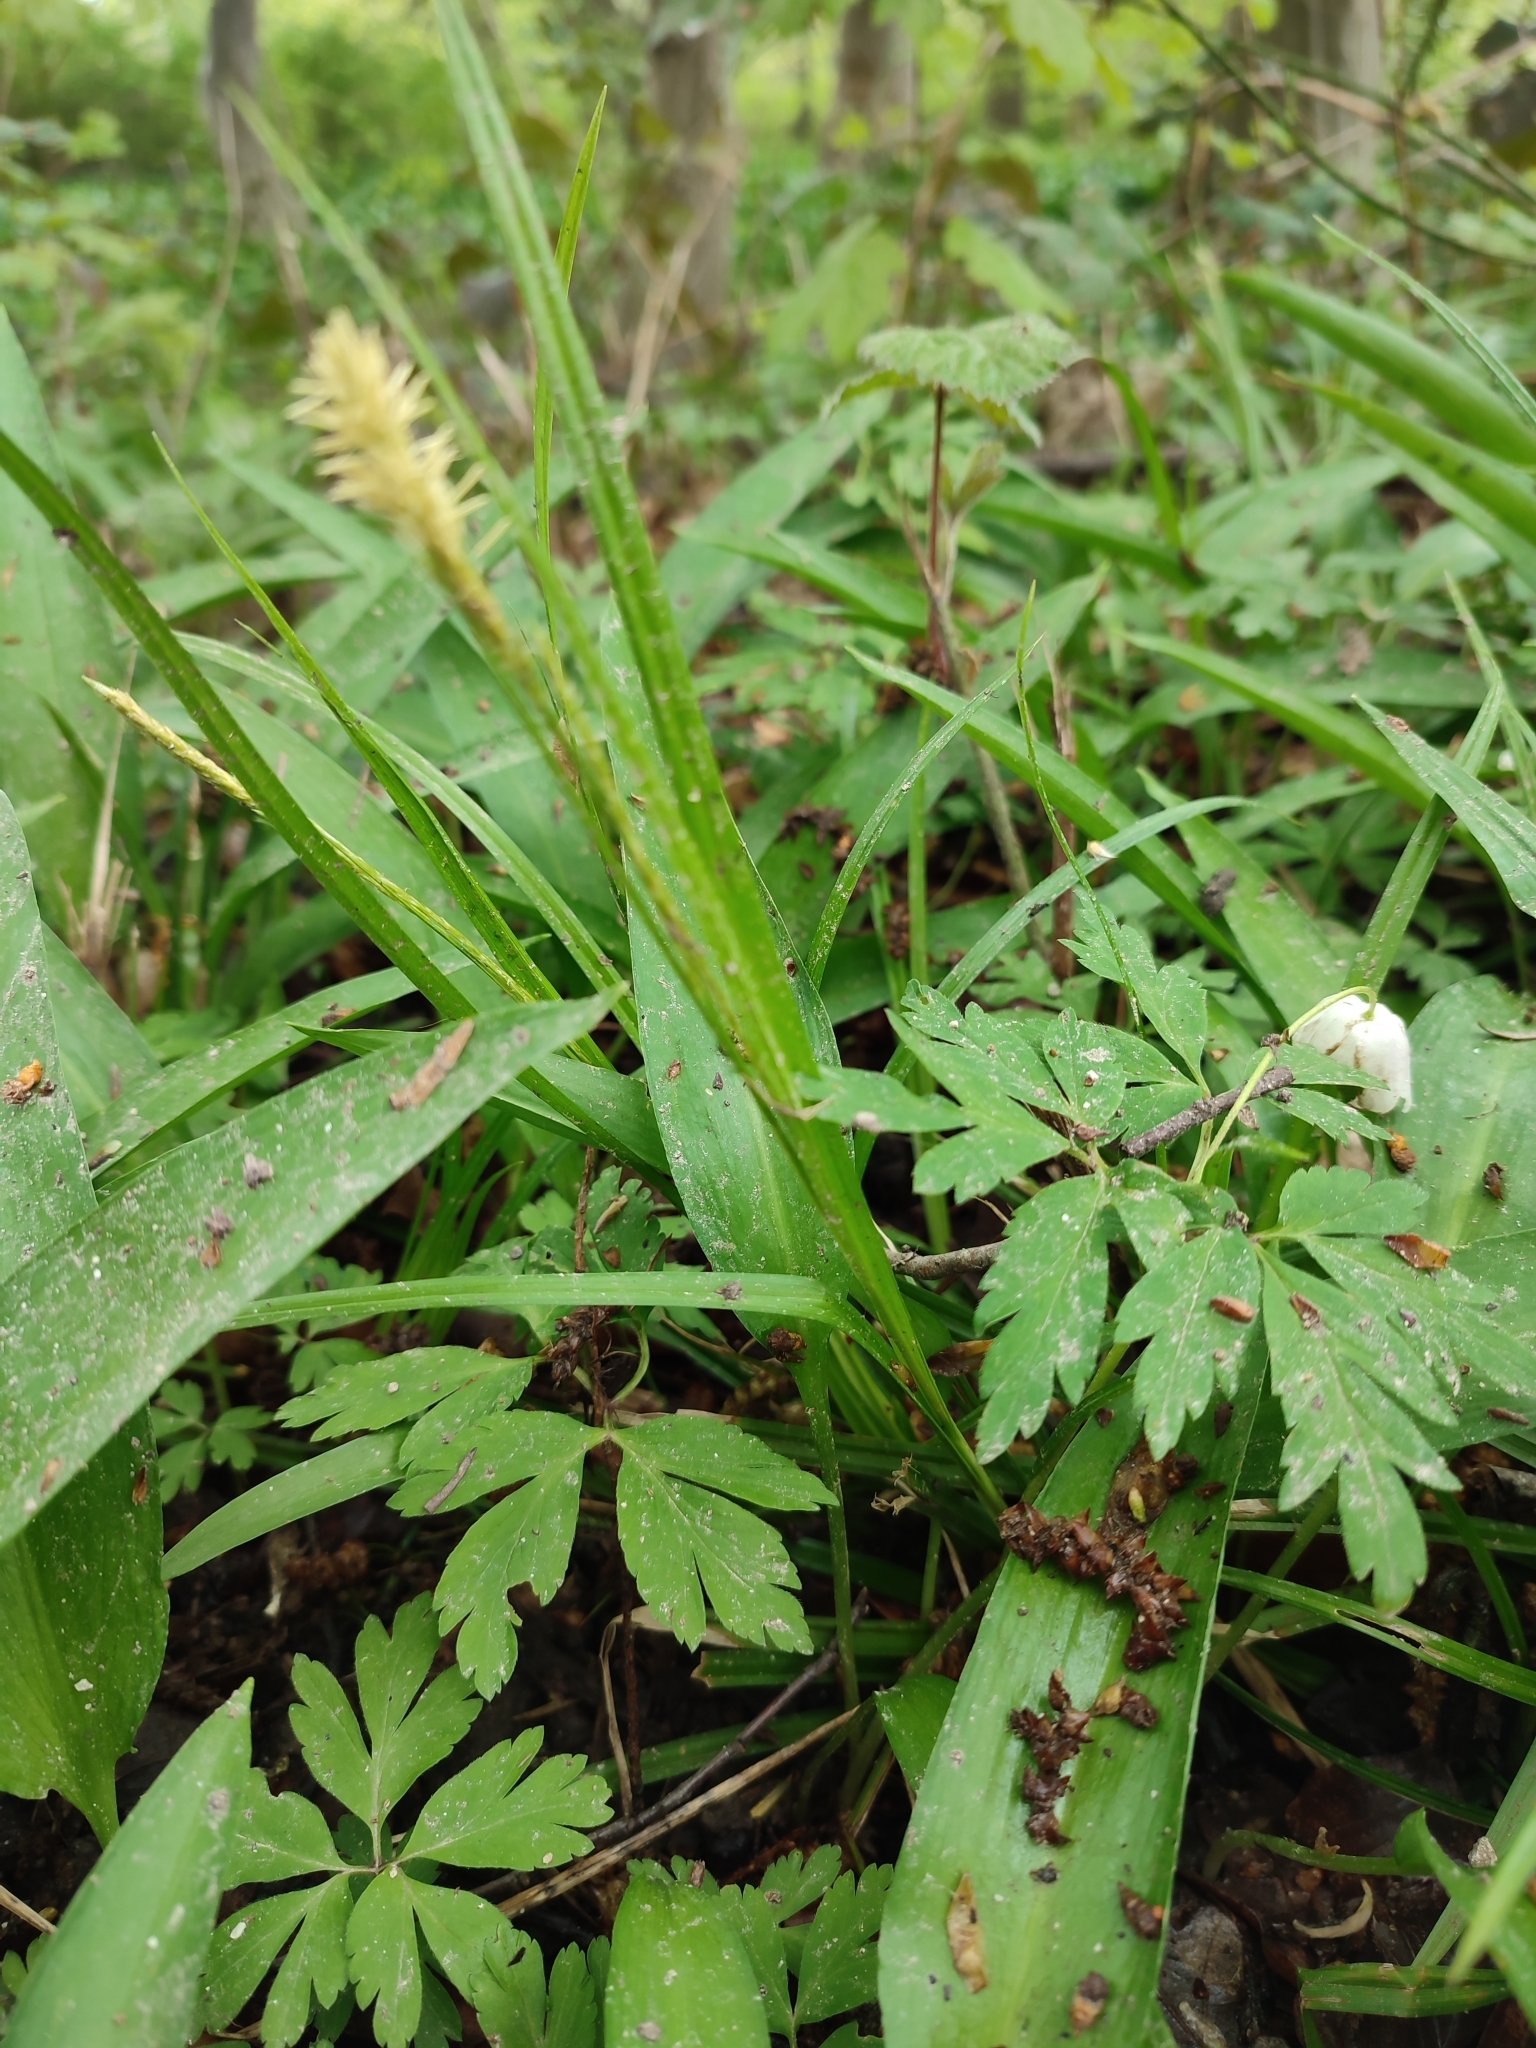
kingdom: Plantae
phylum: Tracheophyta
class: Liliopsida
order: Poales
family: Cyperaceae
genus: Carex
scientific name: Carex sylvatica
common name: Wood-sedge
